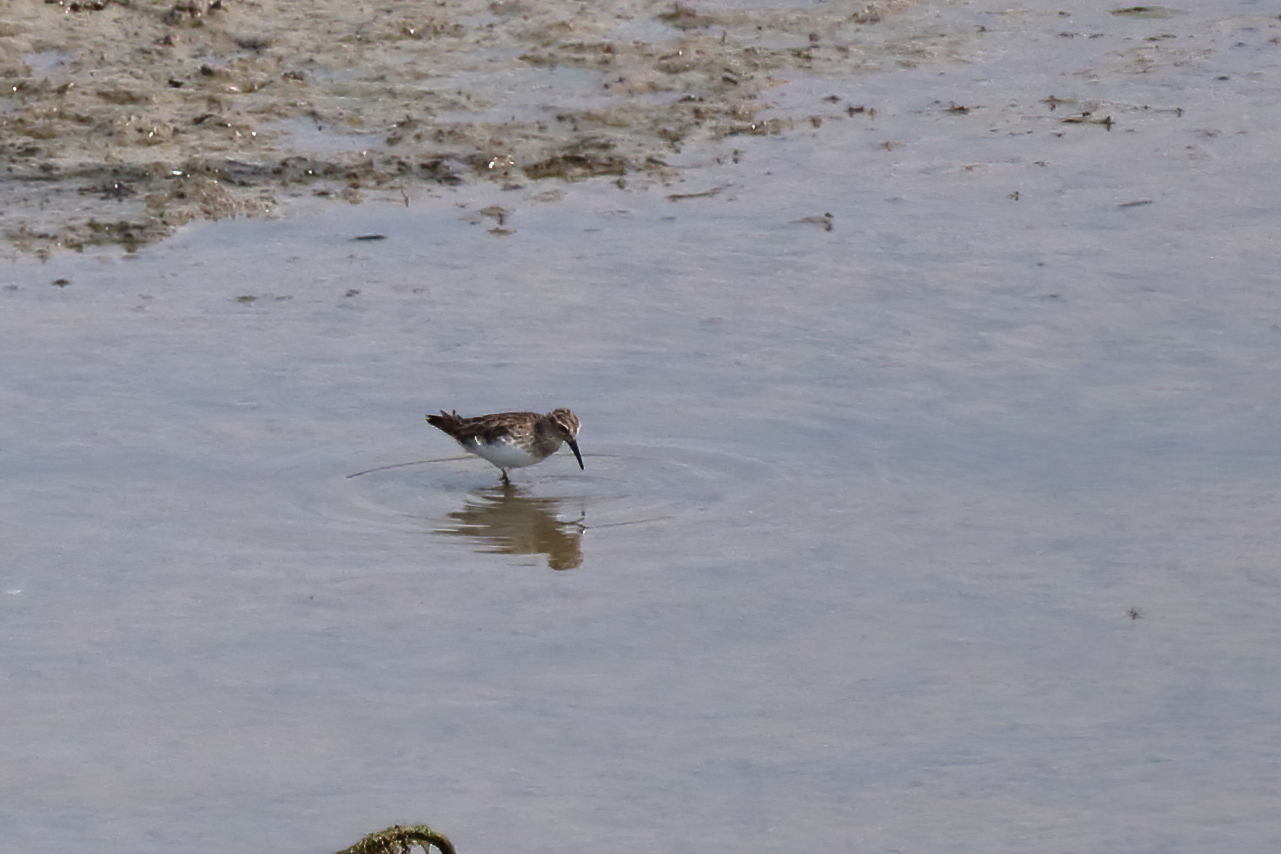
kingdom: Animalia
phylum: Chordata
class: Aves
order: Charadriiformes
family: Scolopacidae
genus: Calidris
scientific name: Calidris minutilla
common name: Least sandpiper
